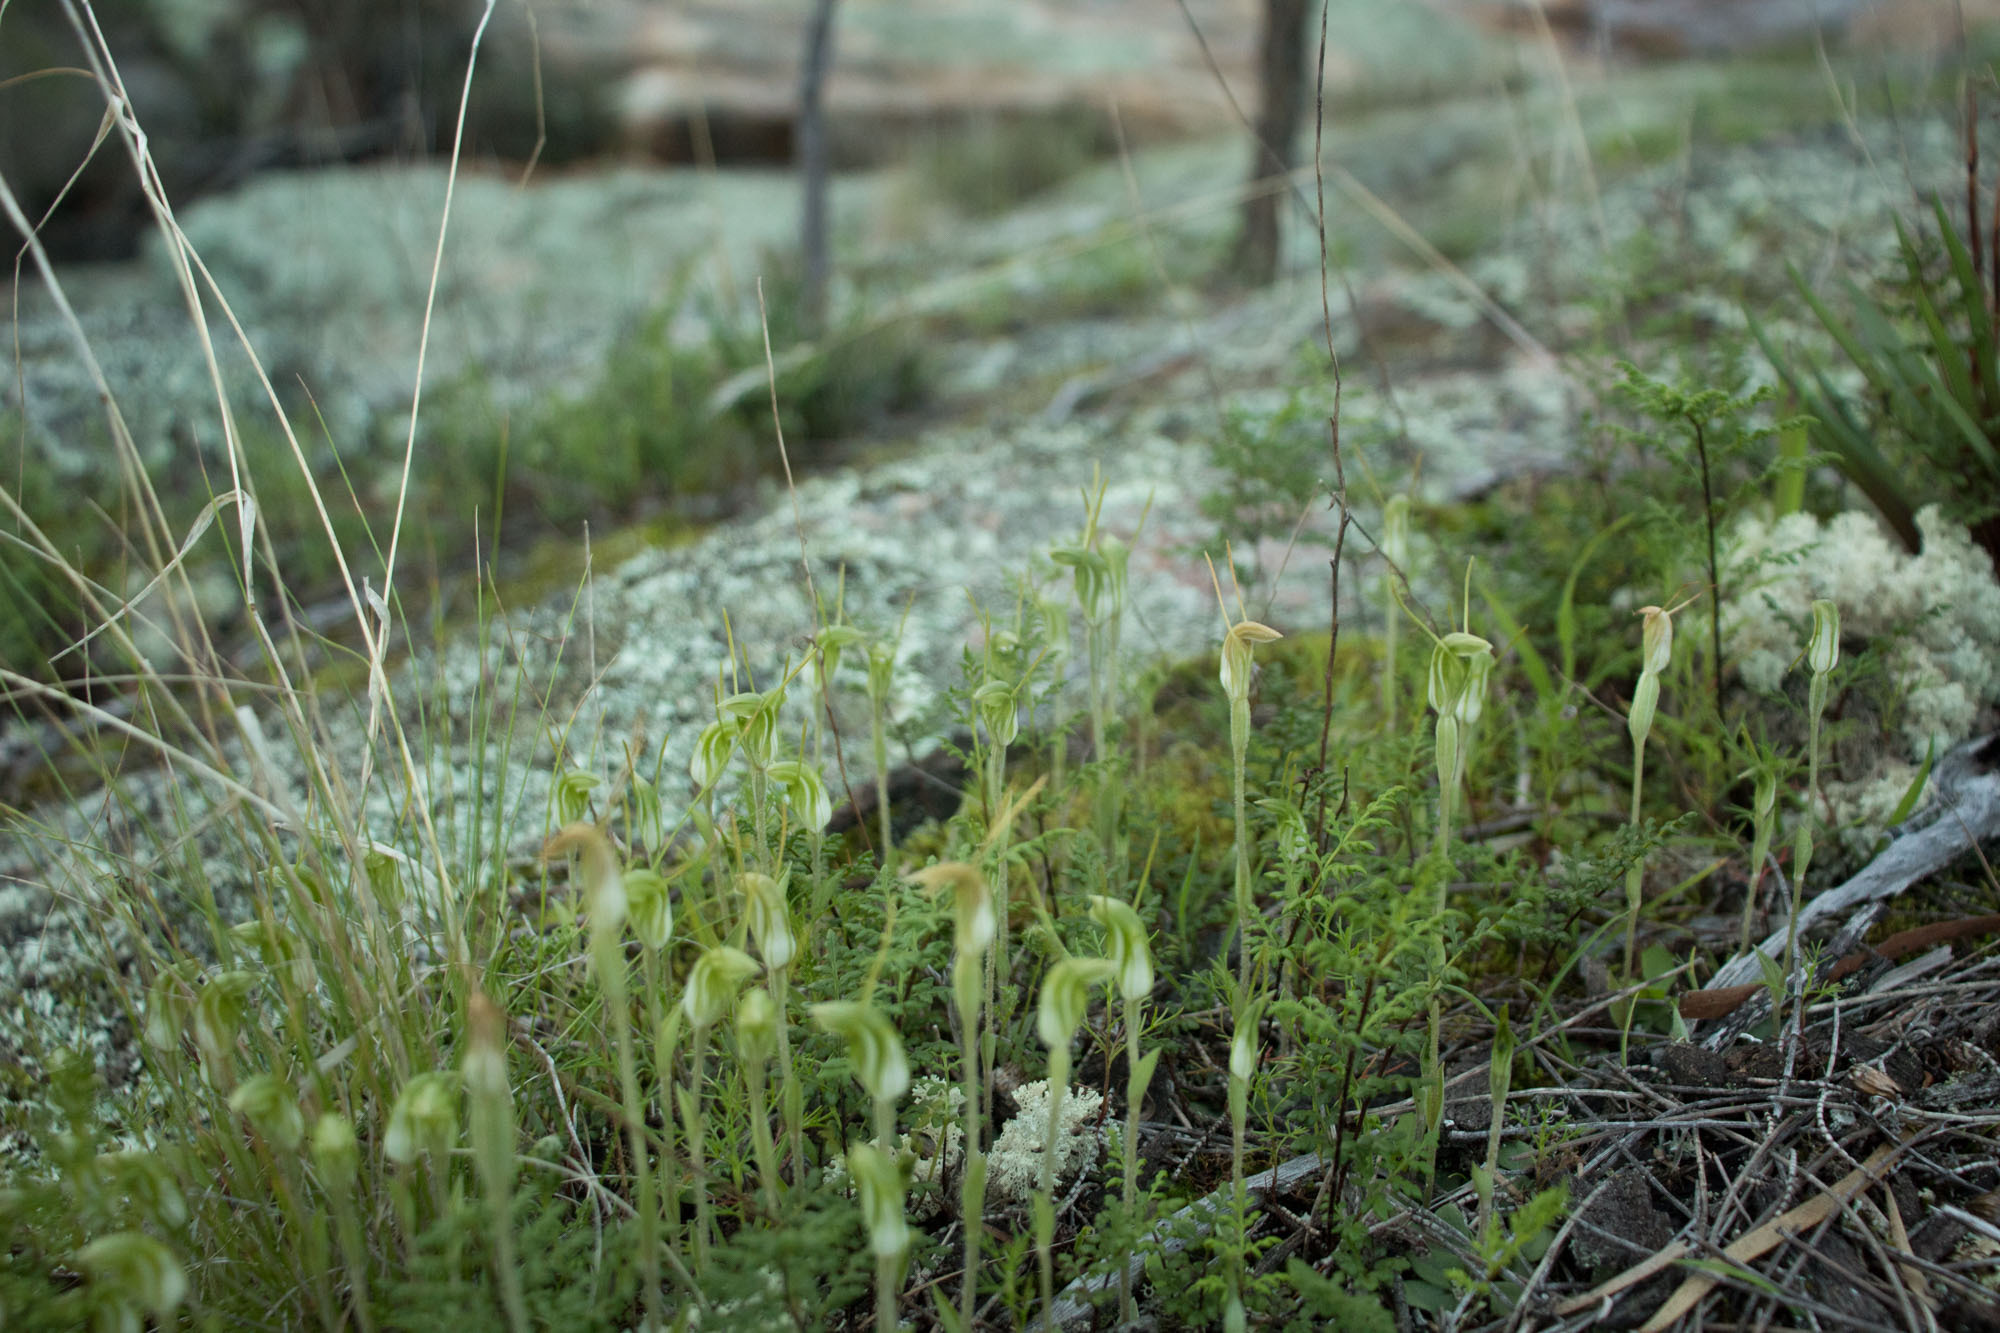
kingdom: Plantae
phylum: Tracheophyta
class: Liliopsida
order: Asparagales
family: Orchidaceae
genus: Pterostylis
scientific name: Pterostylis setulosa
